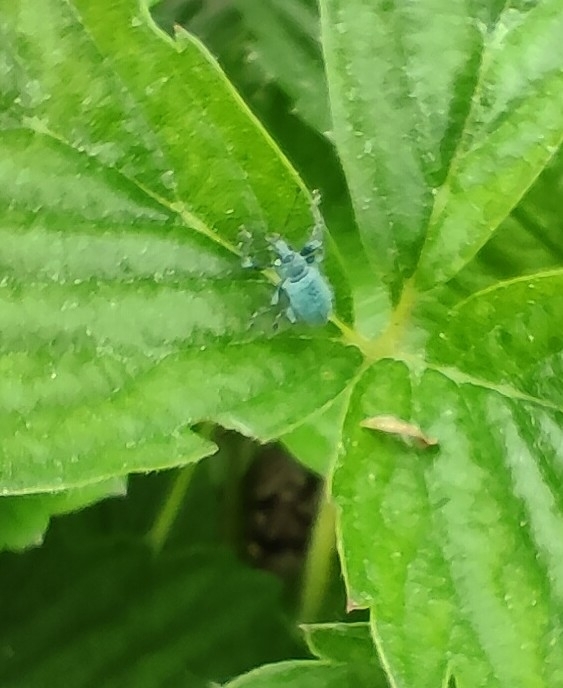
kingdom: Animalia
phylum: Arthropoda
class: Insecta
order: Coleoptera
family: Curculionidae
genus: Phyllobius
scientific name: Phyllobius pomaceus
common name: Green nettle weevil
